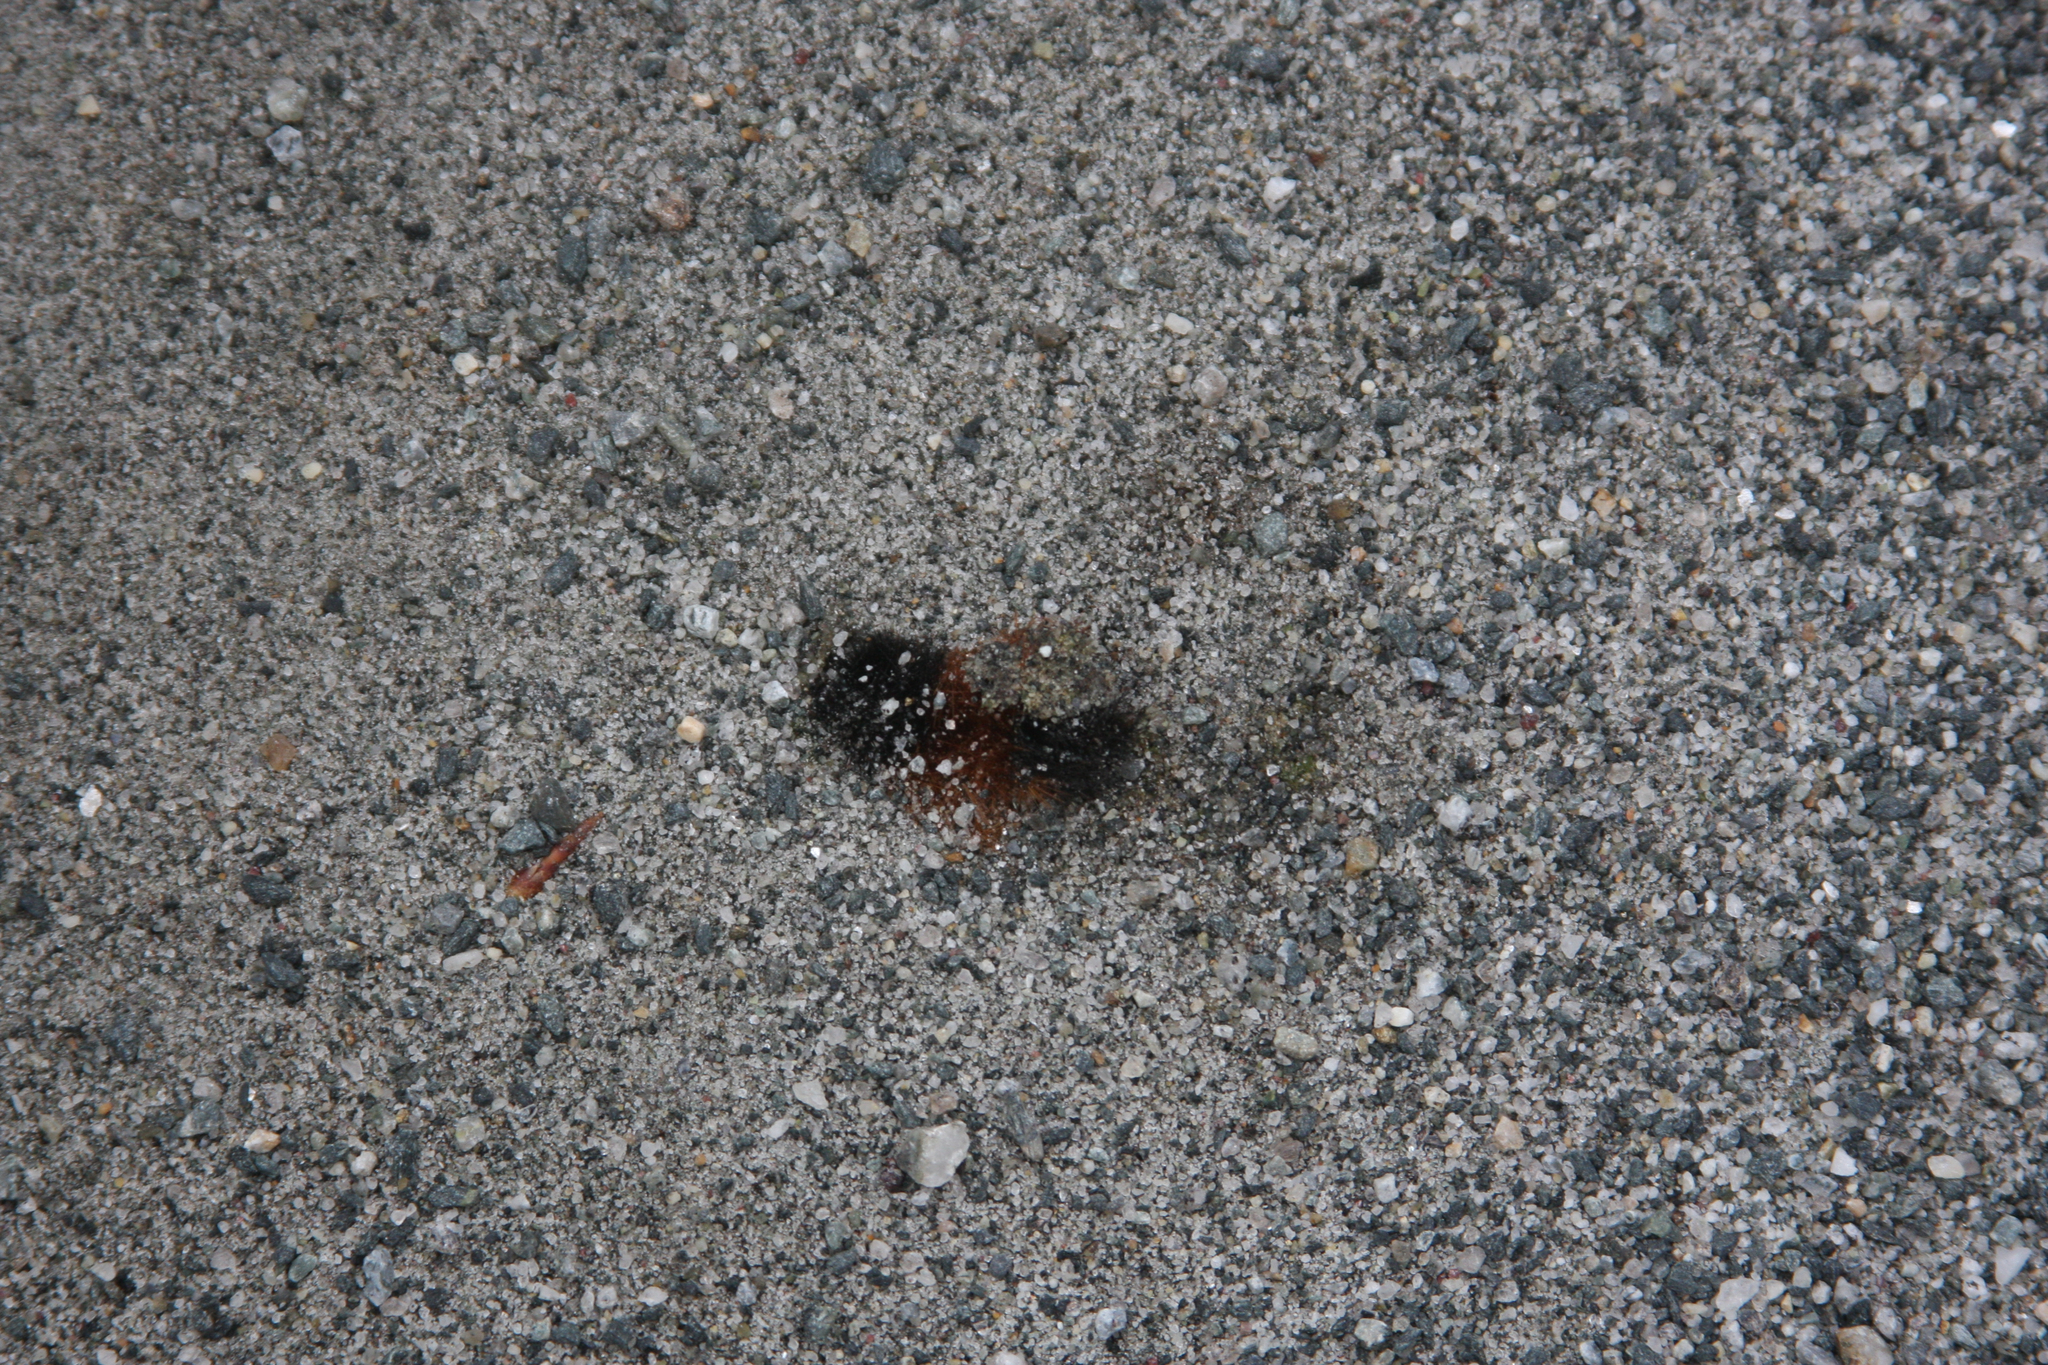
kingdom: Animalia
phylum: Arthropoda
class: Insecta
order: Lepidoptera
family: Erebidae
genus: Pyrrharctia
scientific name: Pyrrharctia isabella
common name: Isabella tiger moth
